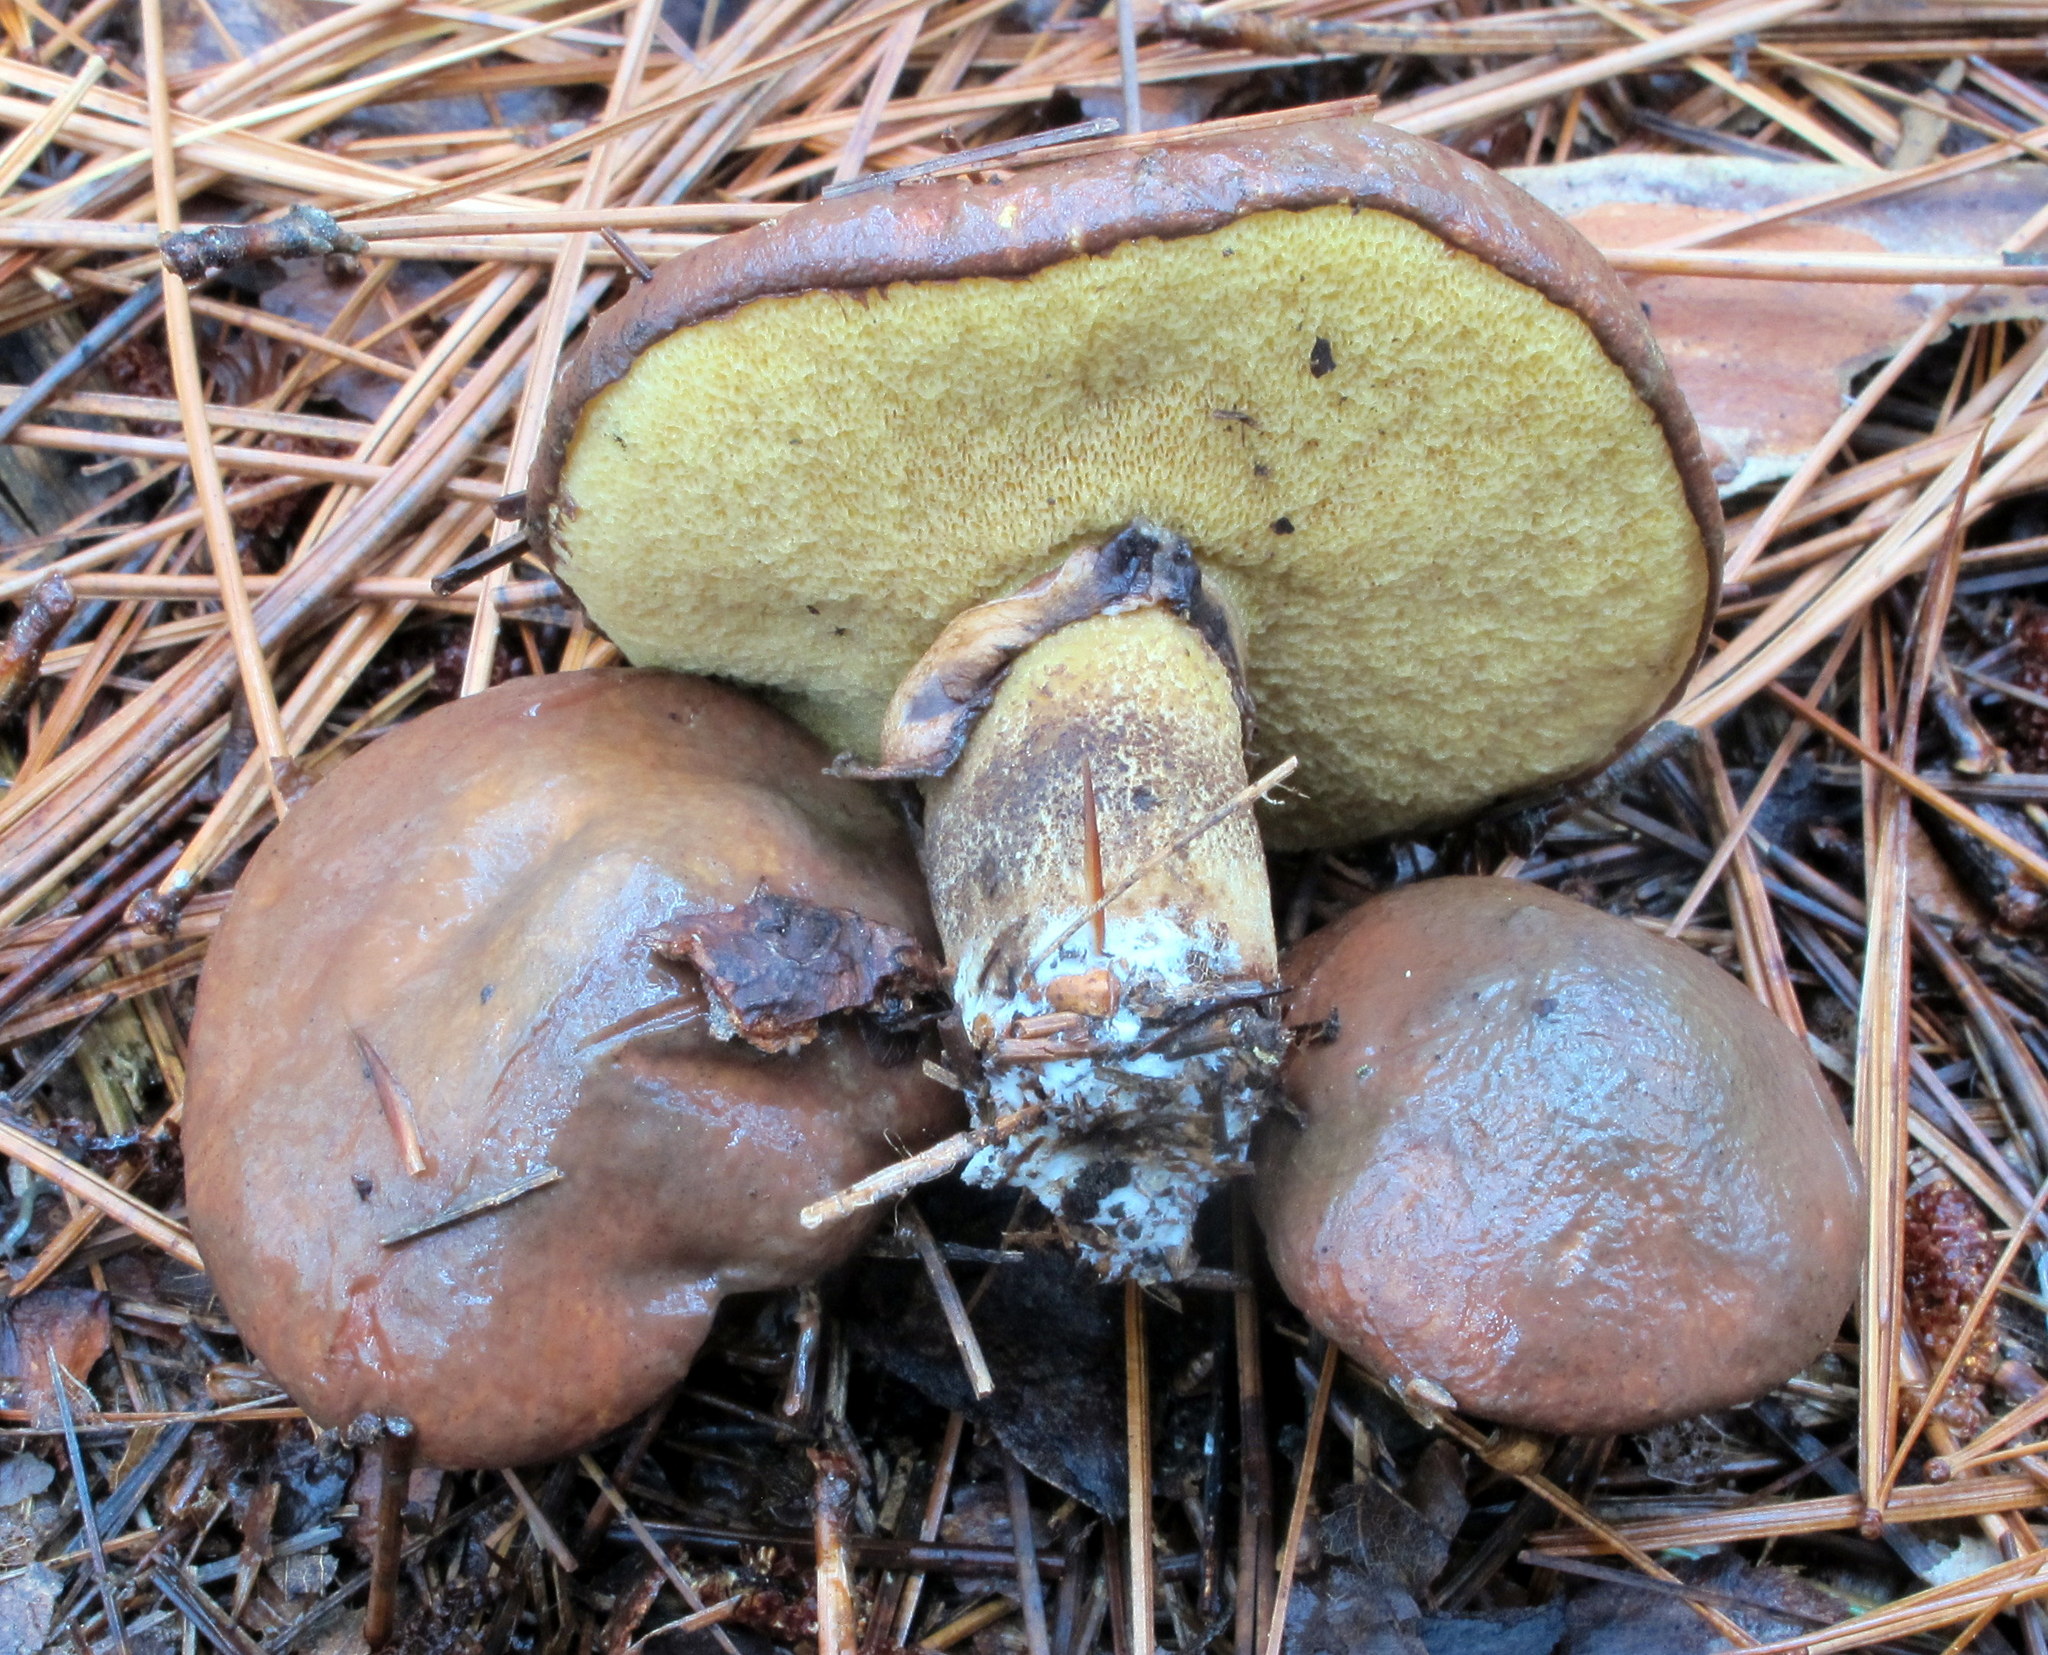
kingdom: Fungi
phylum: Basidiomycota
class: Agaricomycetes
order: Boletales
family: Suillaceae
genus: Suillus
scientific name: Suillus luteus
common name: Slippery jack
